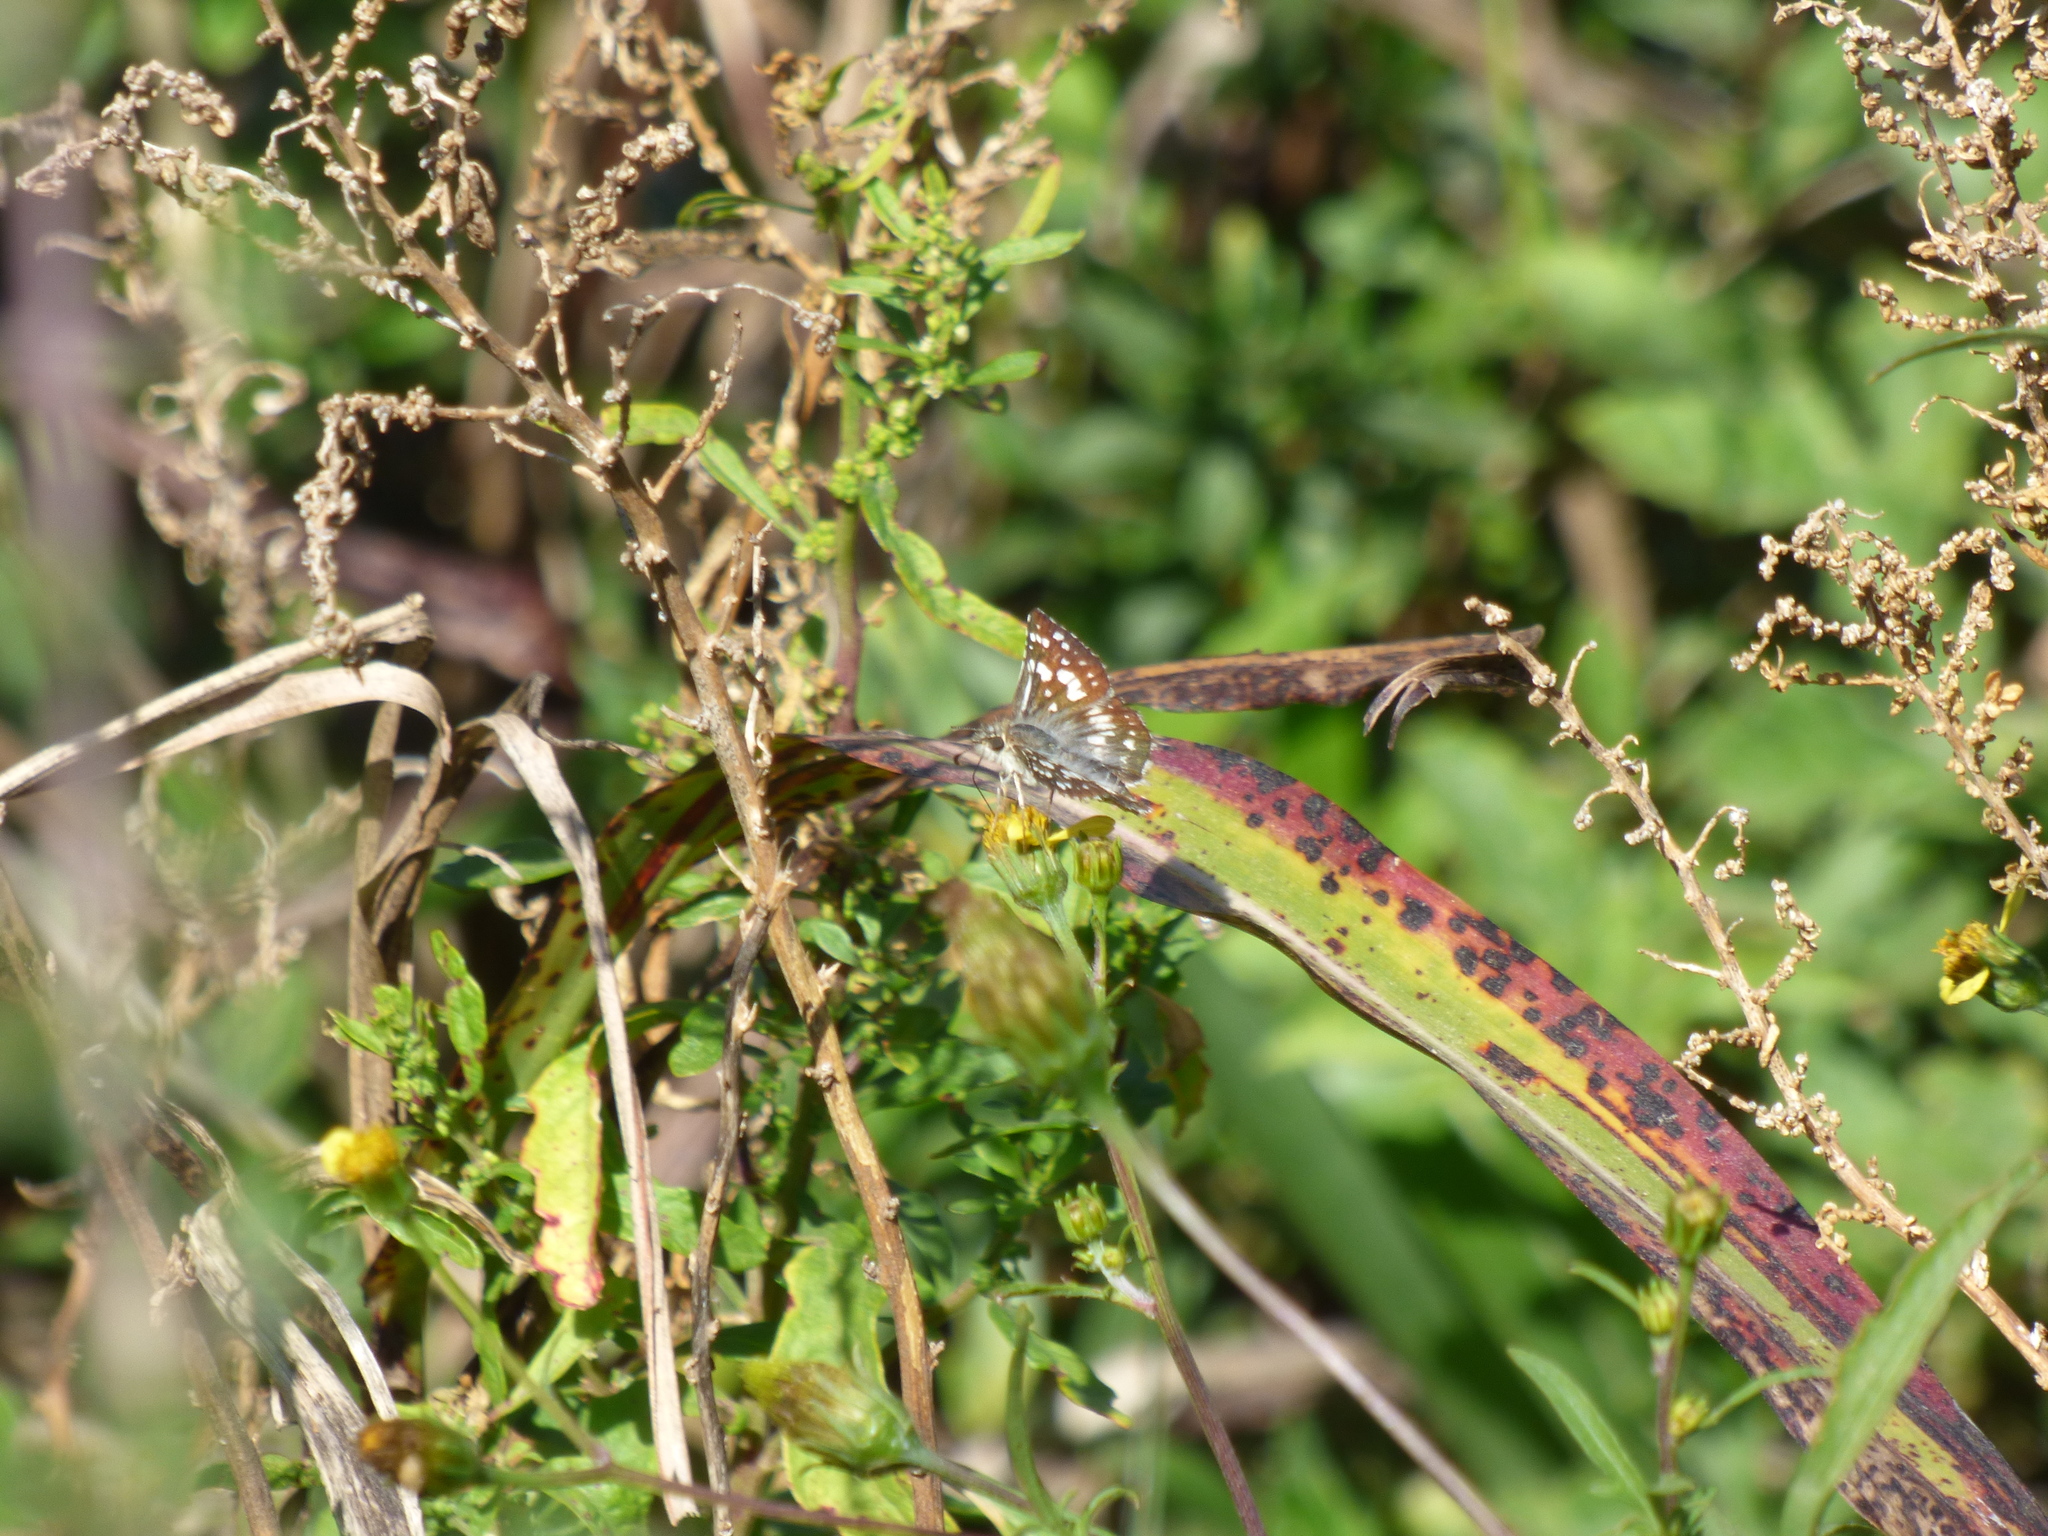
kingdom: Animalia
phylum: Arthropoda
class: Insecta
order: Lepidoptera
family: Hesperiidae
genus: Burnsius
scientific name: Burnsius orcynoides
